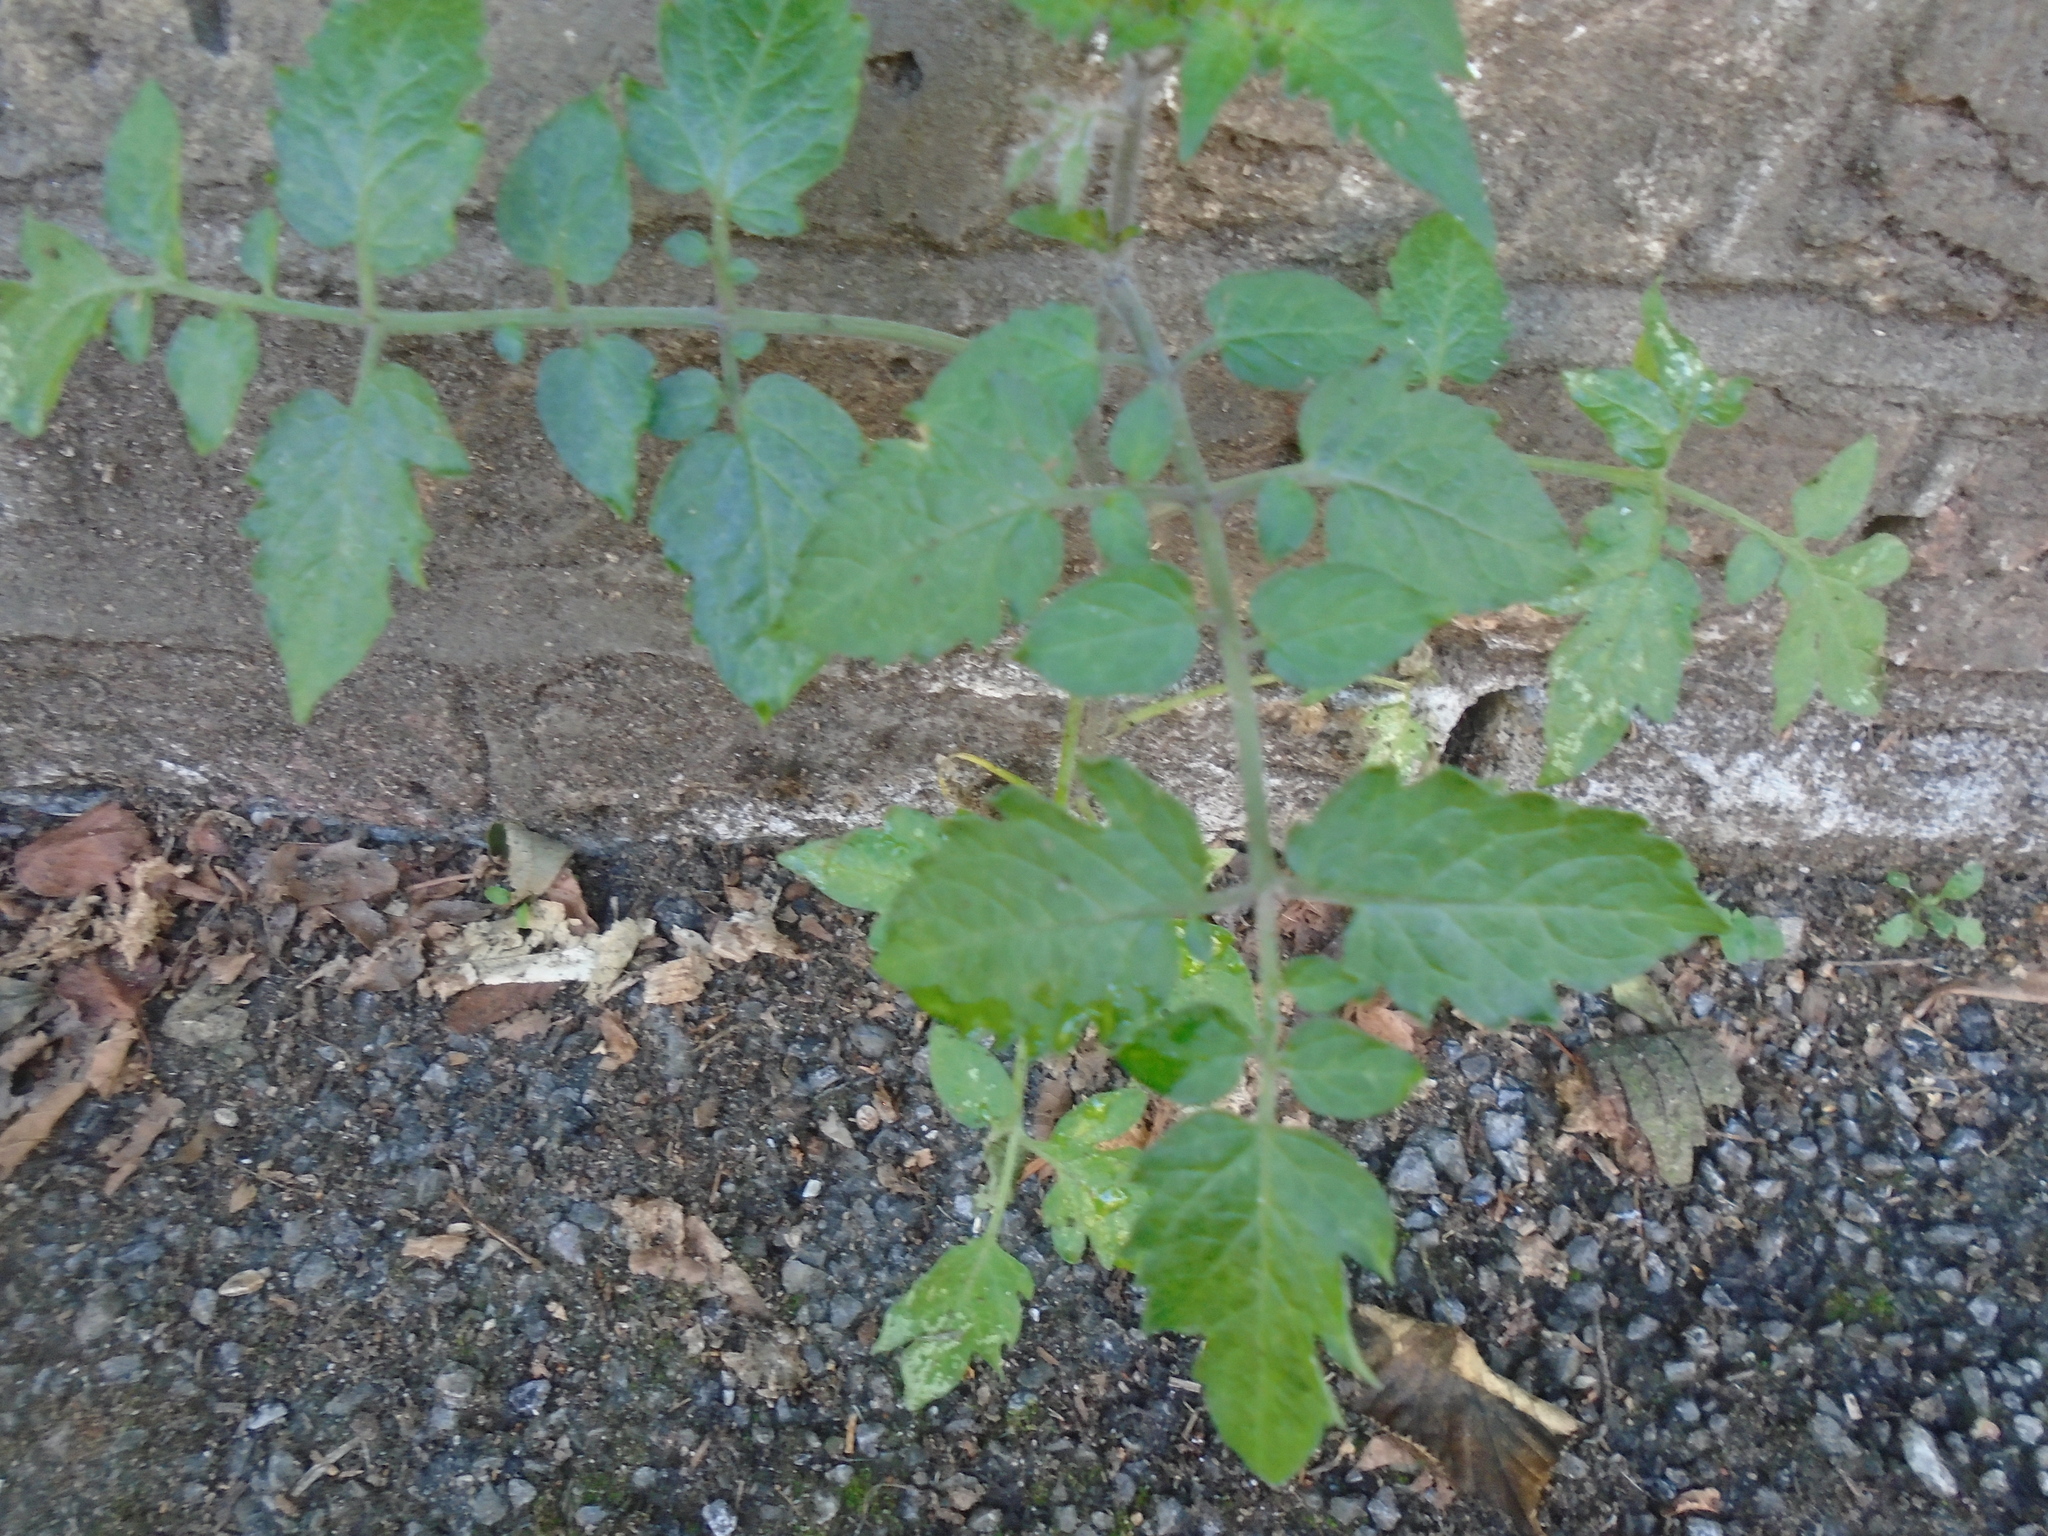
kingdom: Plantae
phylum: Tracheophyta
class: Magnoliopsida
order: Solanales
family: Solanaceae
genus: Solanum
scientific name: Solanum lycopersicum
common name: Garden tomato
